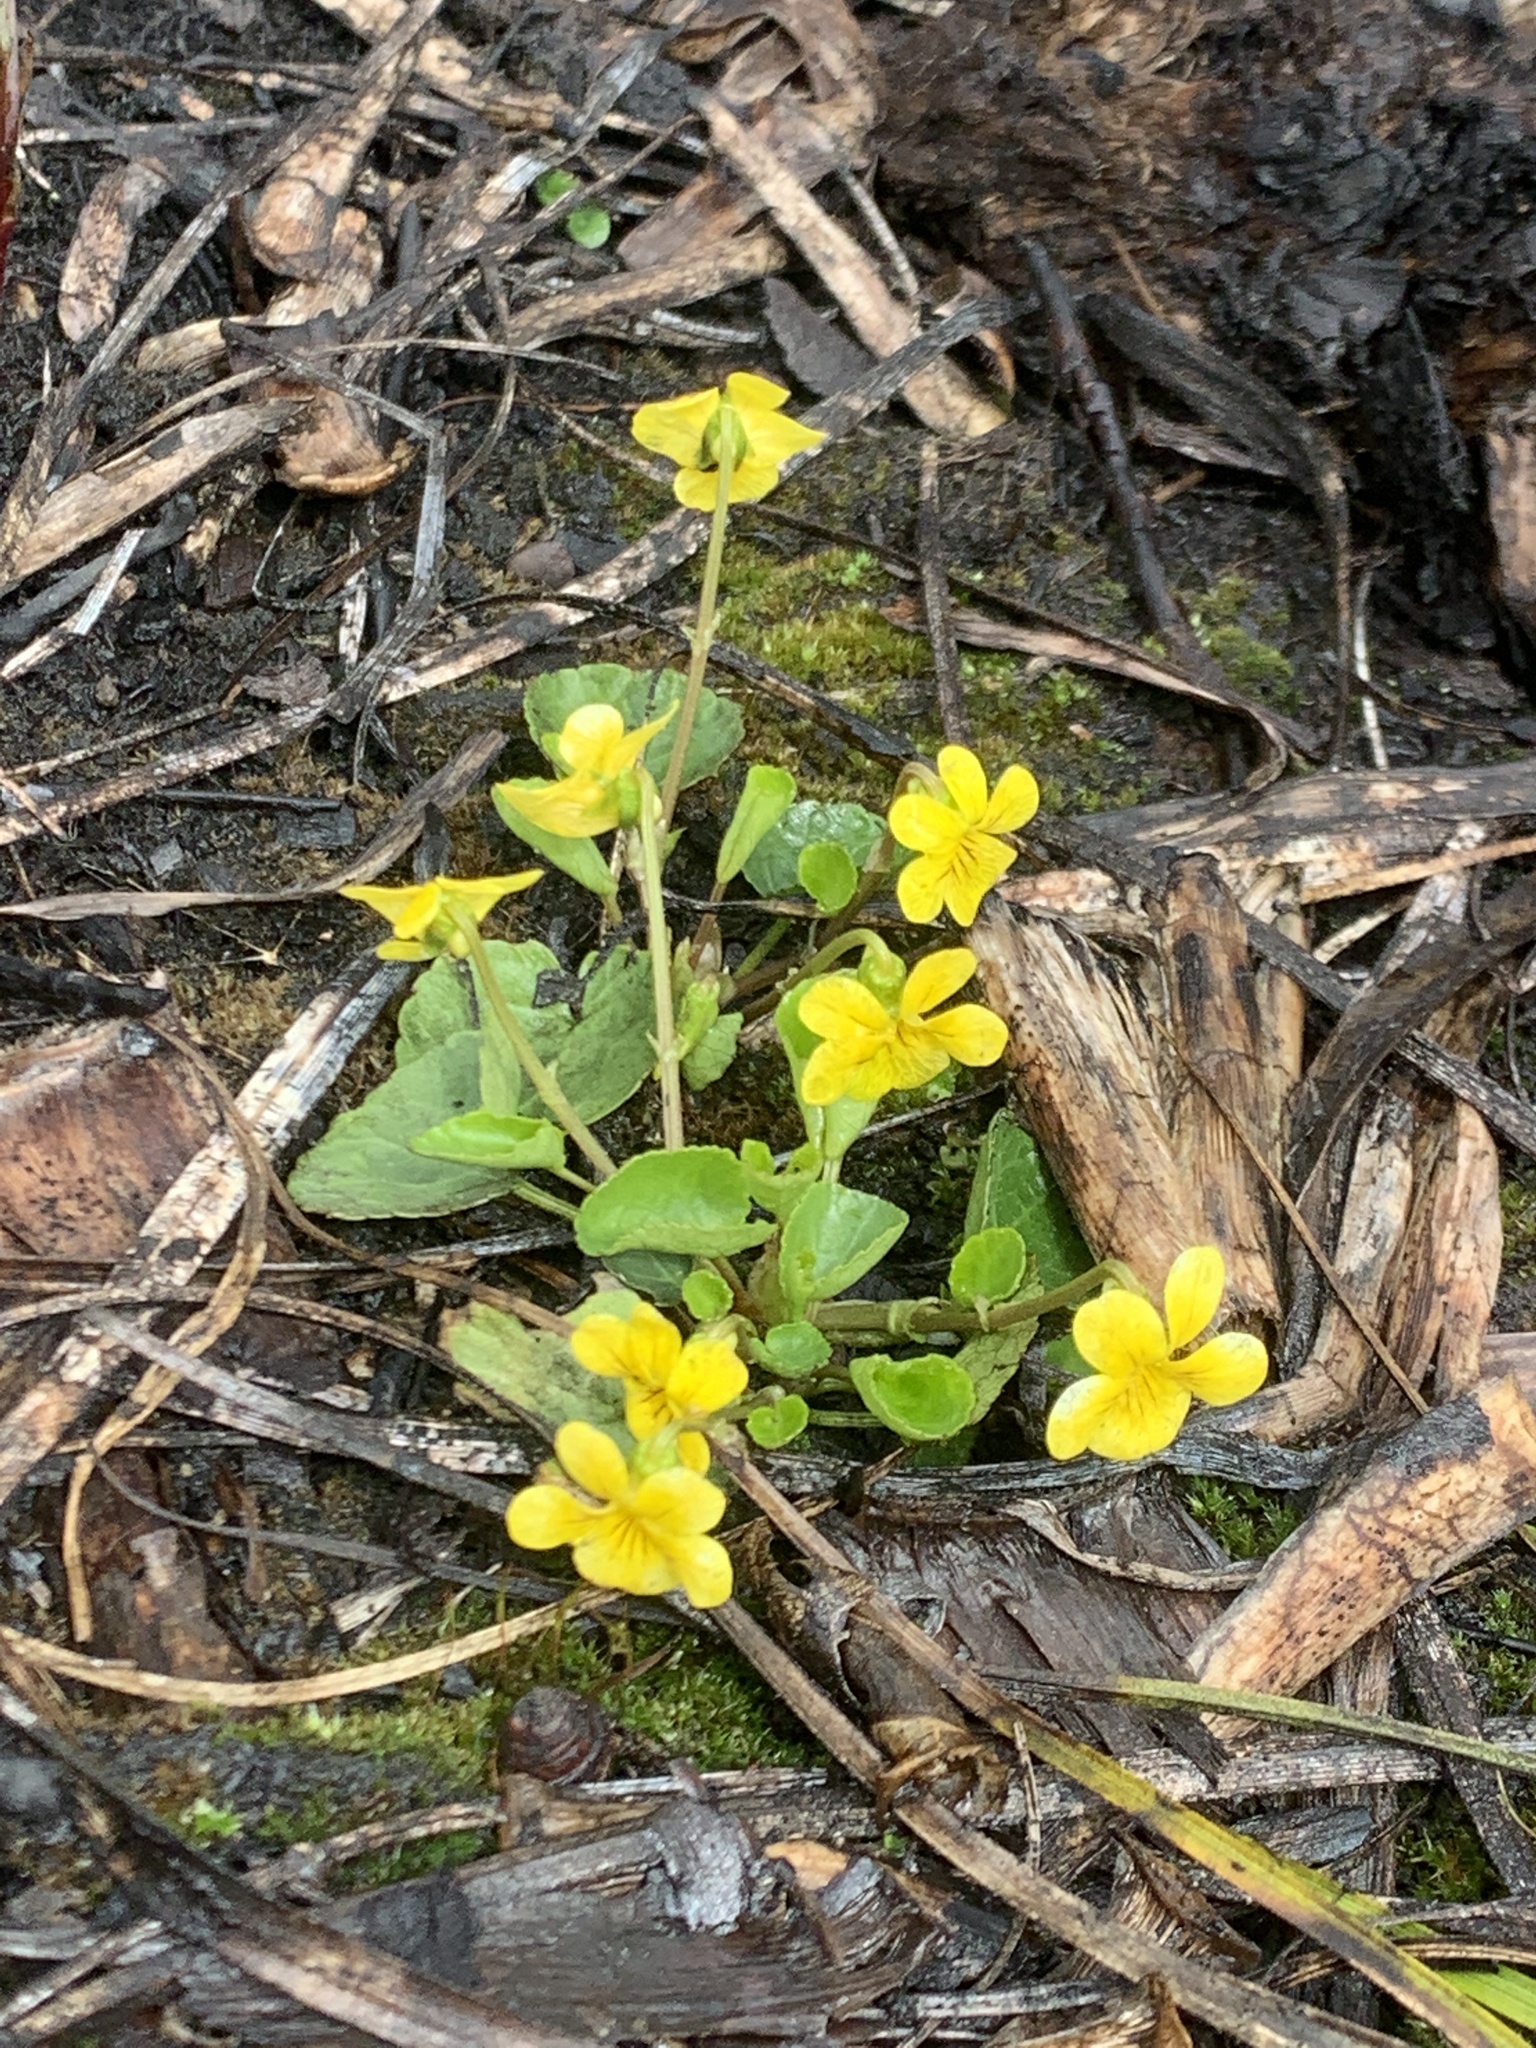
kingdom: Plantae
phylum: Tracheophyta
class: Magnoliopsida
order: Malpighiales
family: Violaceae
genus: Viola
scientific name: Viola orbiculata
